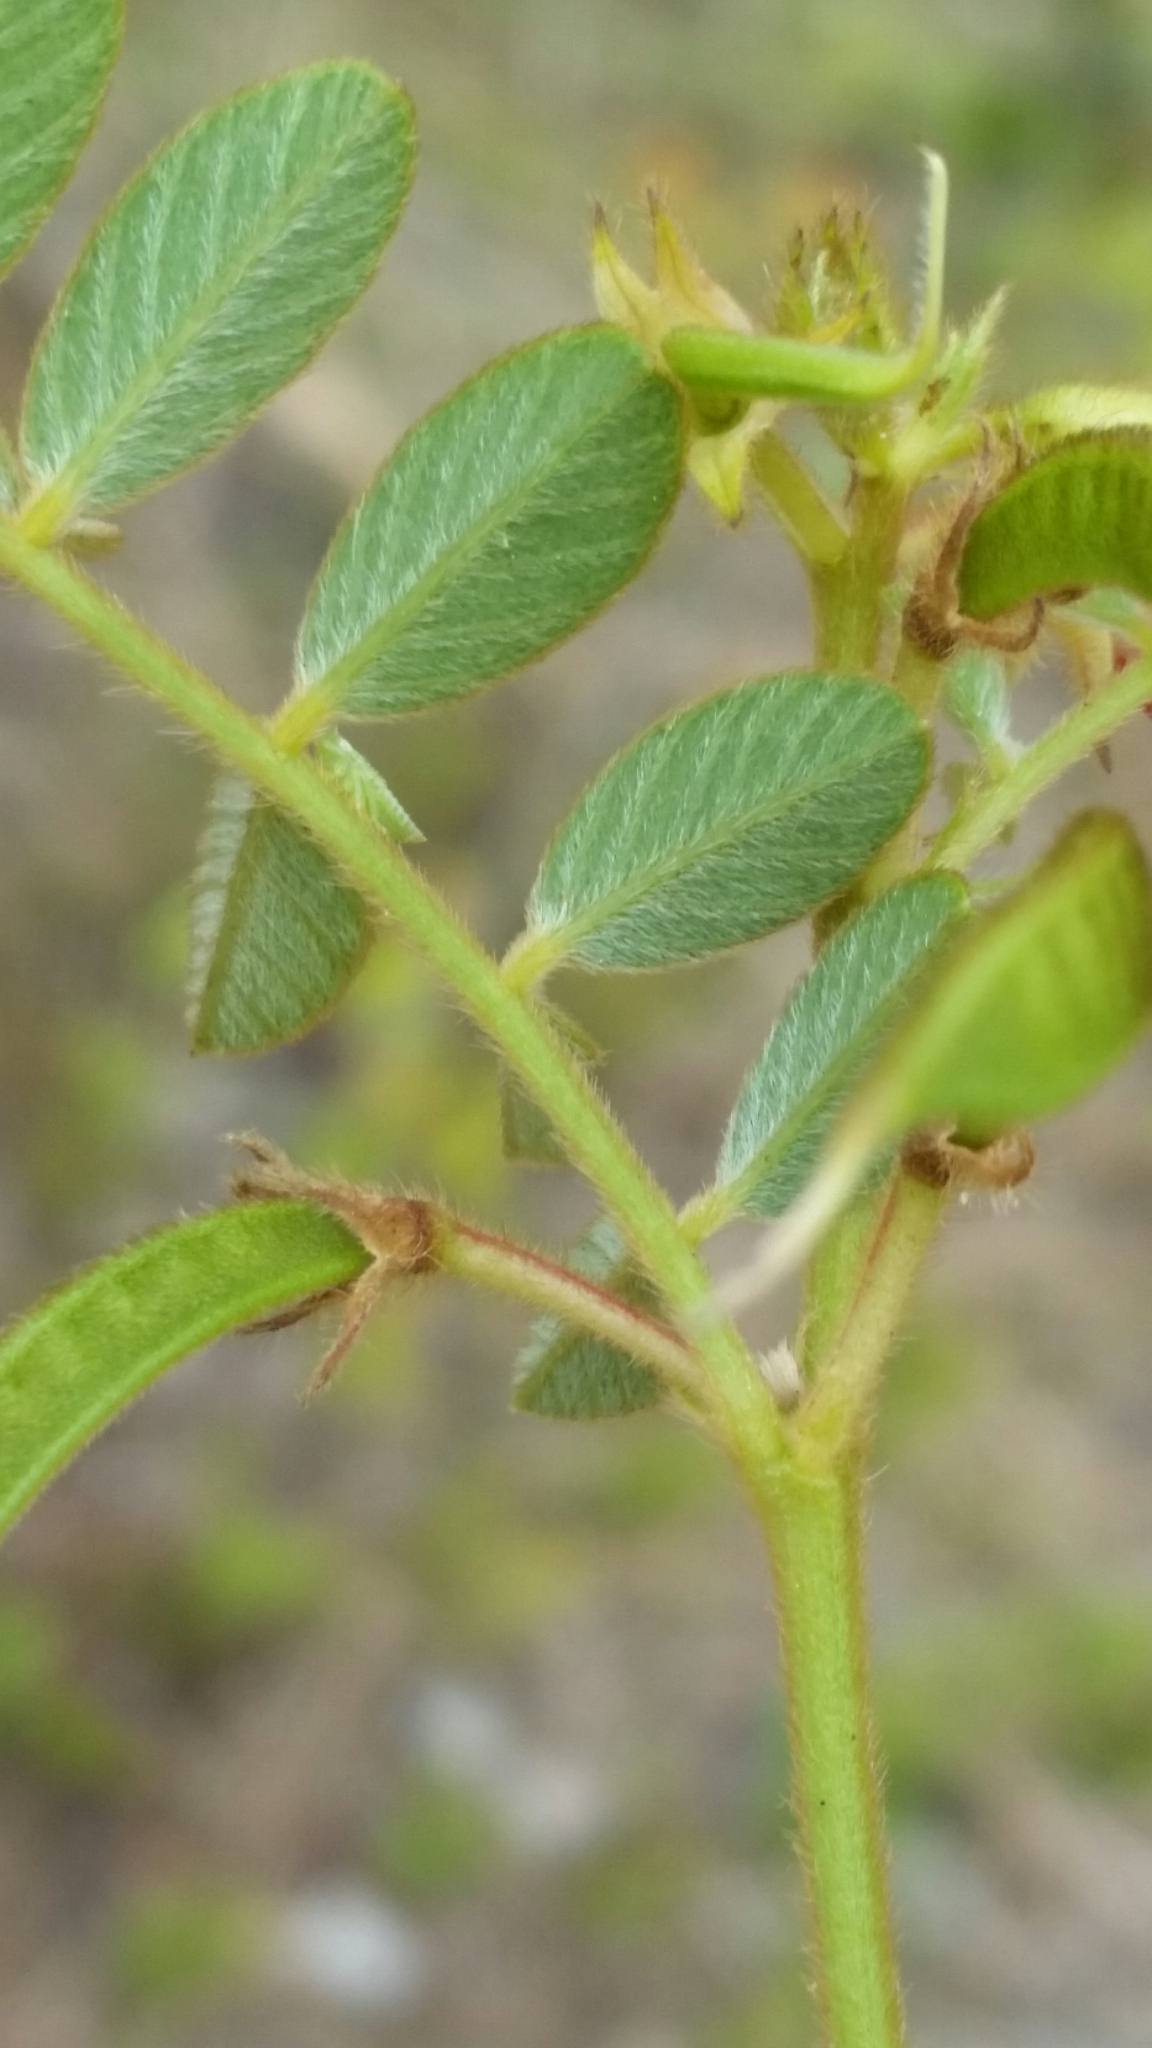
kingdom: Plantae
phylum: Tracheophyta
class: Magnoliopsida
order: Fabales
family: Fabaceae
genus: Tephrosia
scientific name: Tephrosia spicata
